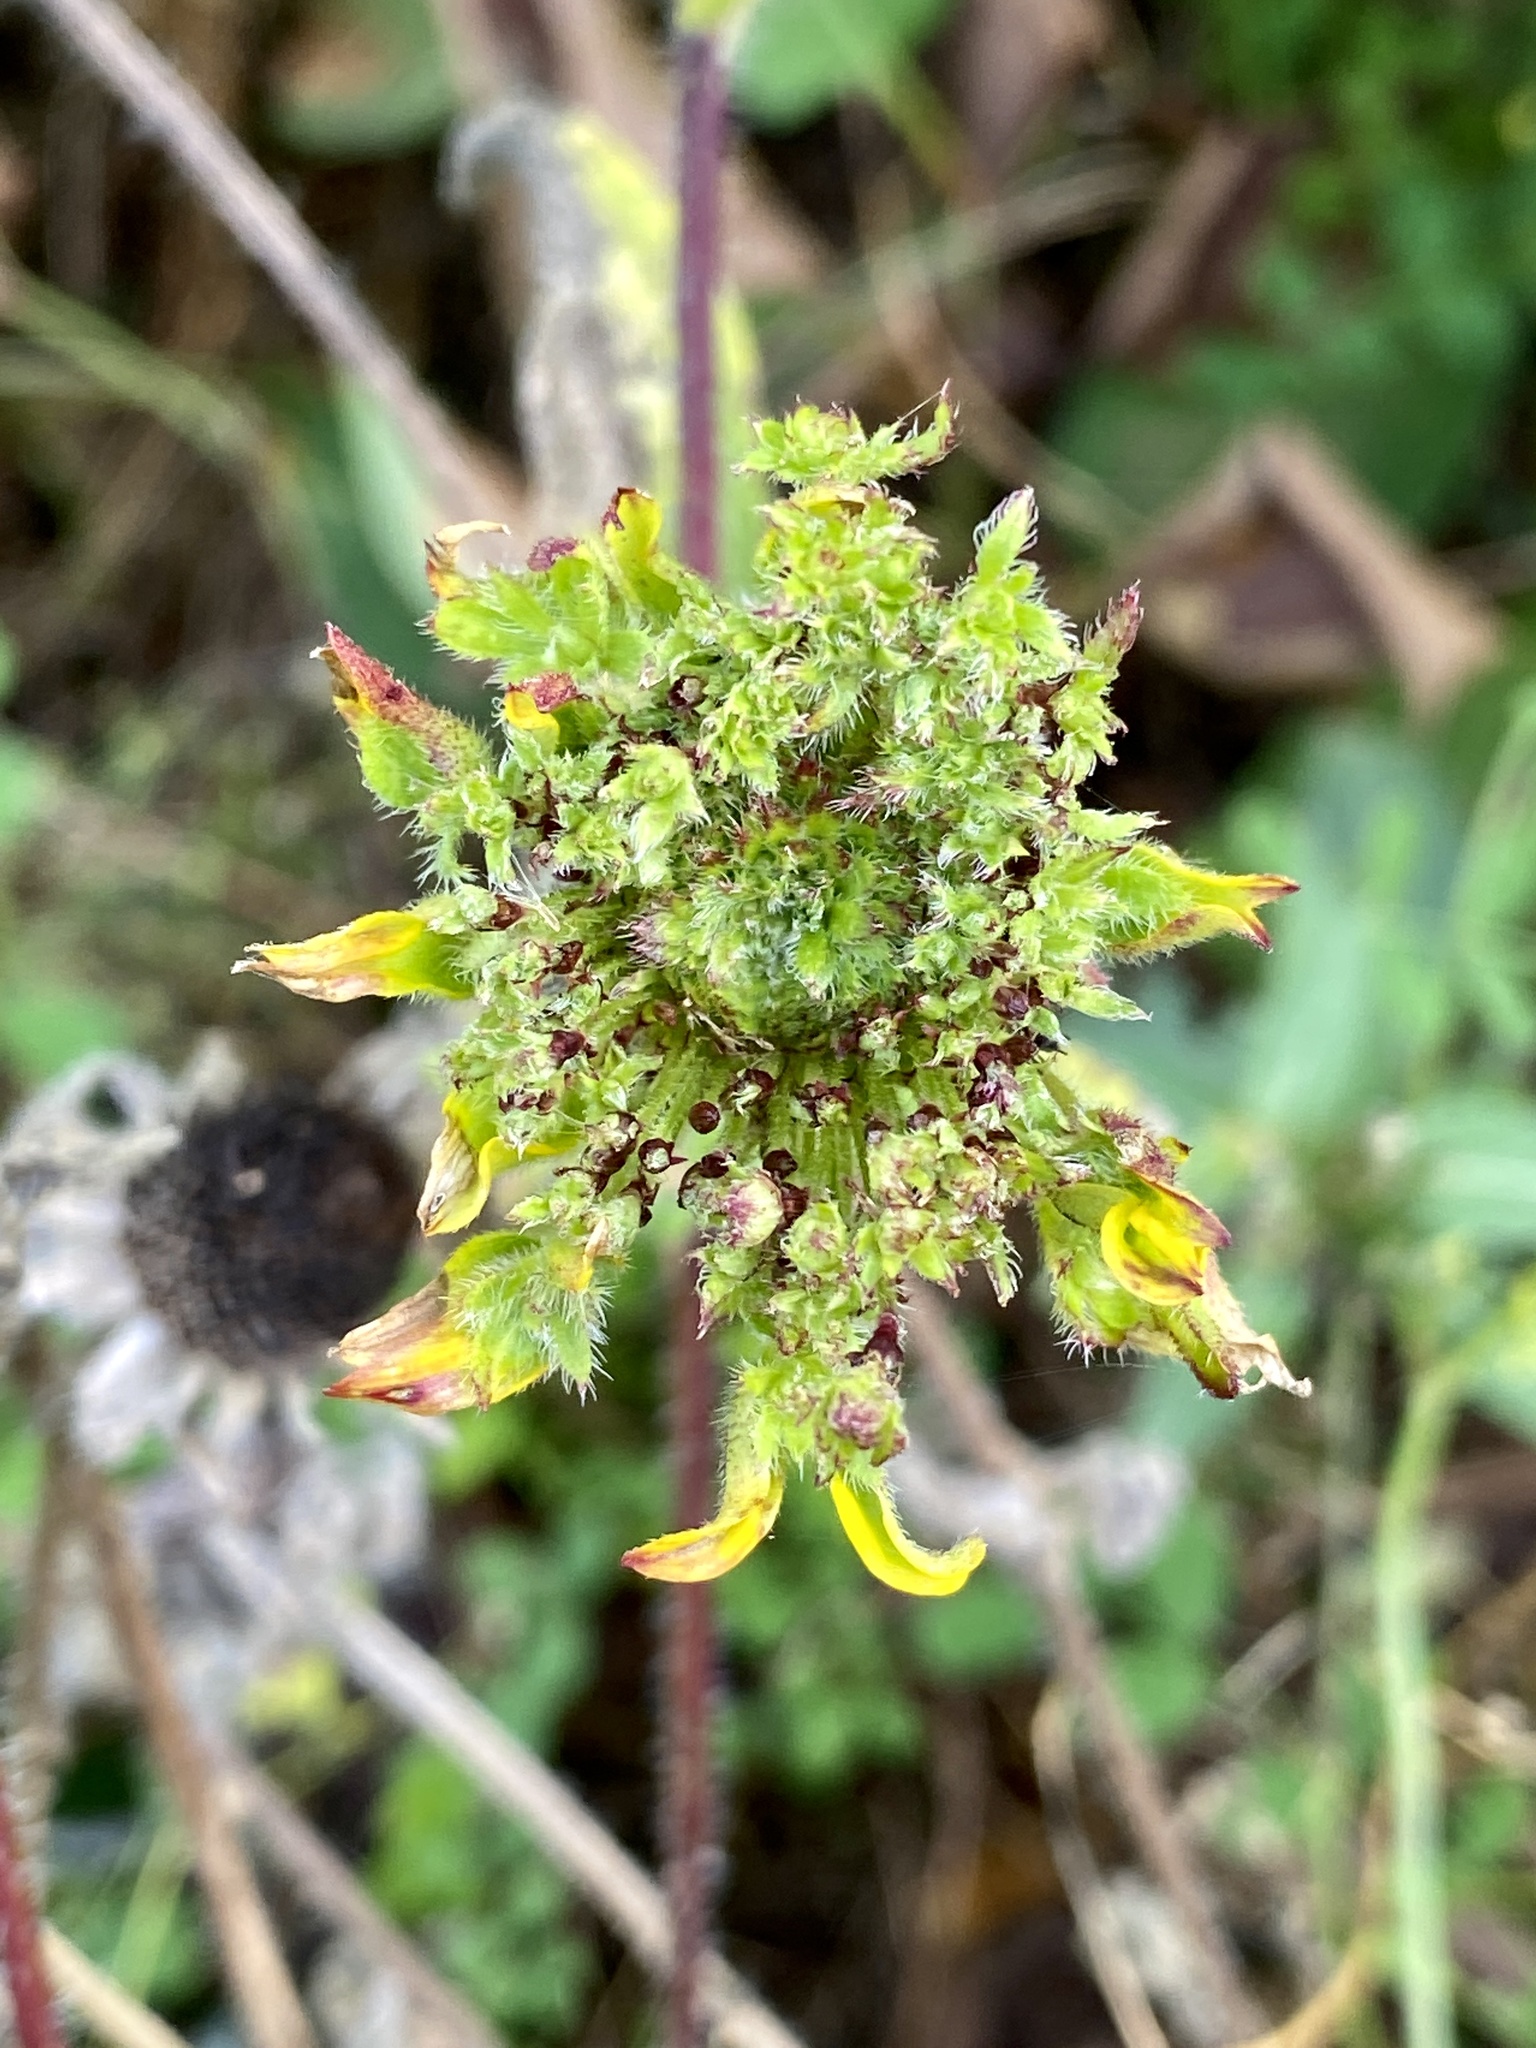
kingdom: Bacteria
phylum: Firmicutes
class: Bacilli
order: Acholeplasmatales
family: Acholeplasmataceae
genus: Phytoplasma
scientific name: Phytoplasma
